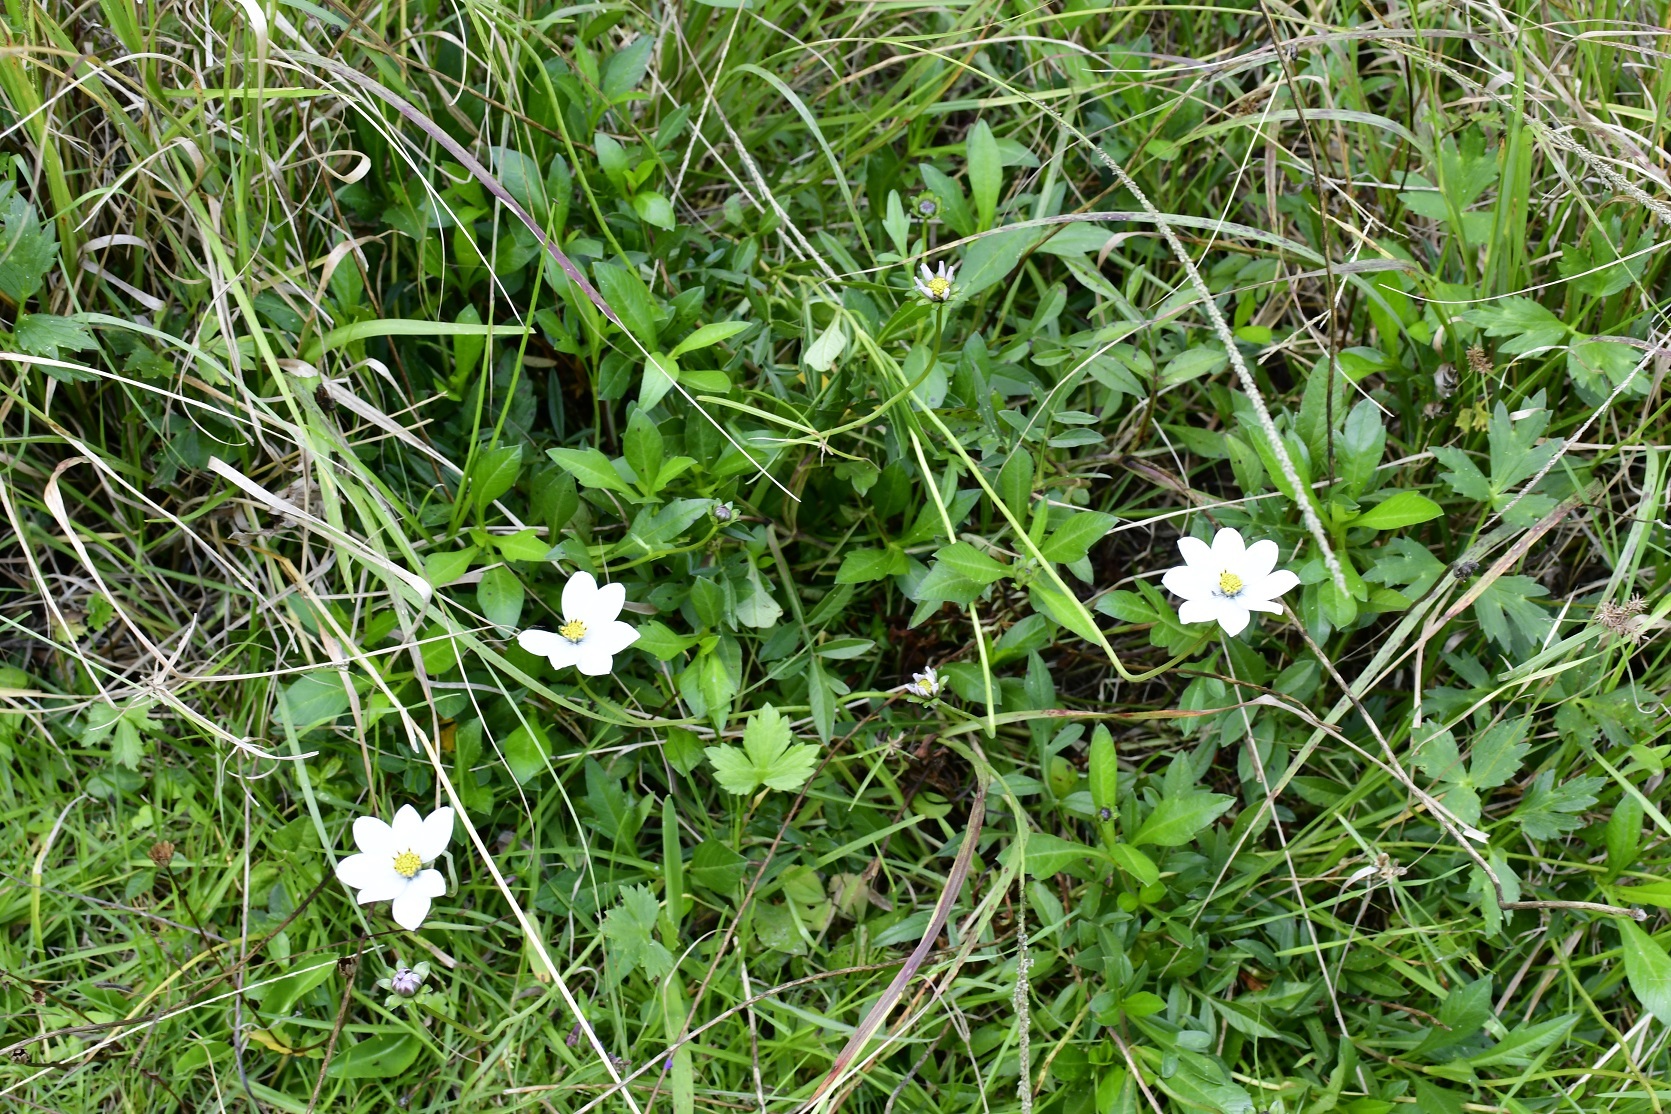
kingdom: Plantae
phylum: Tracheophyta
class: Magnoliopsida
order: Asterales
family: Asteraceae
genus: Cosmos
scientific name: Cosmos diversifolius
